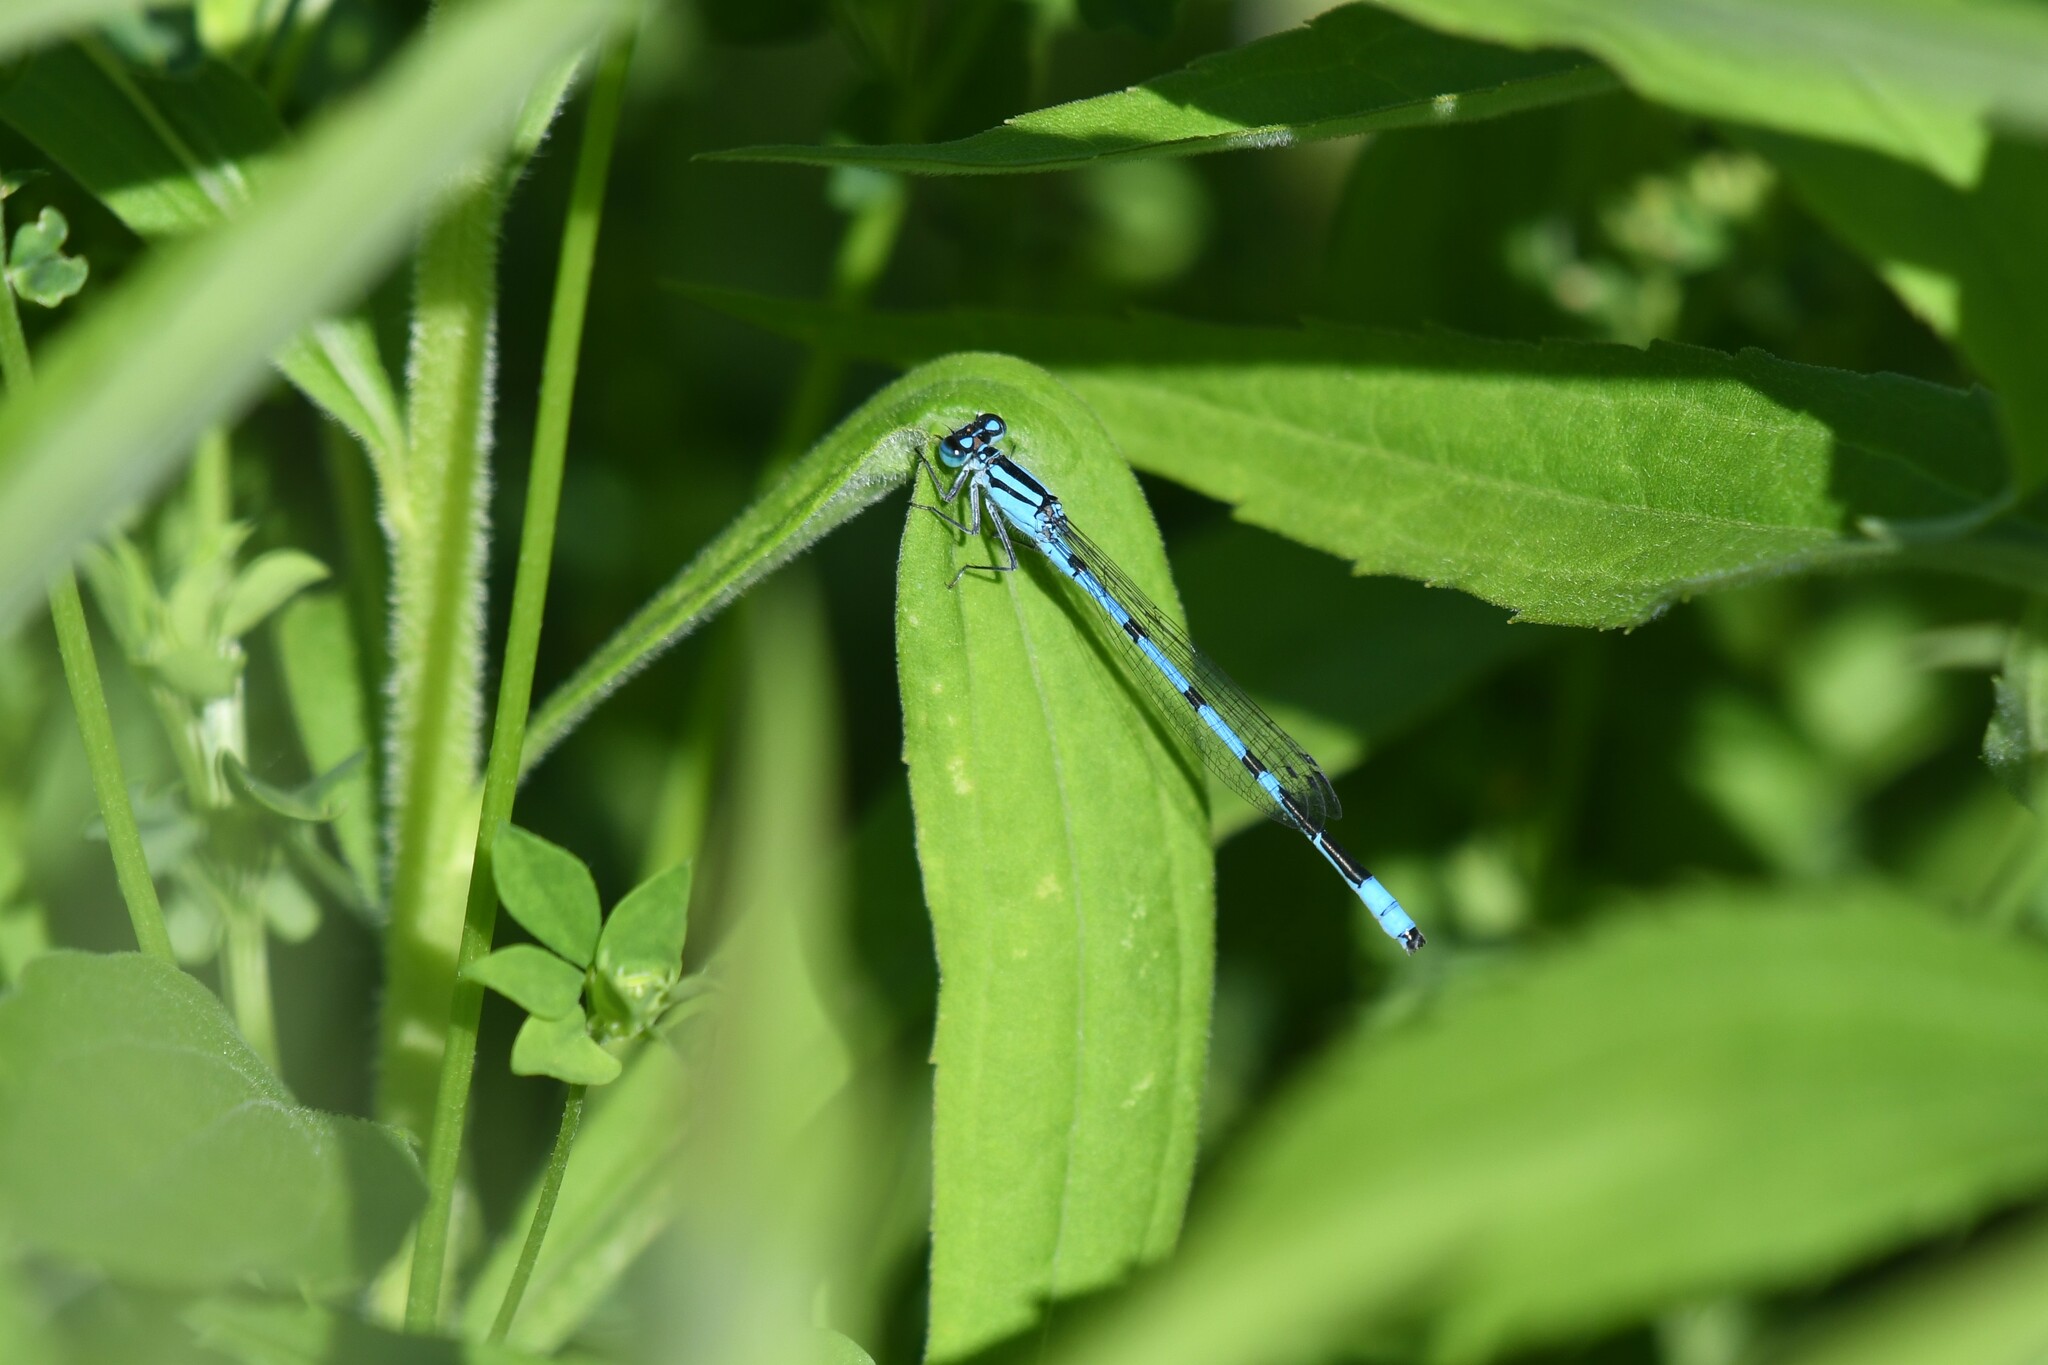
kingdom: Animalia
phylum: Arthropoda
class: Insecta
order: Odonata
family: Coenagrionidae
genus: Enallagma
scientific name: Enallagma ebrium
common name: Marsh bluet
